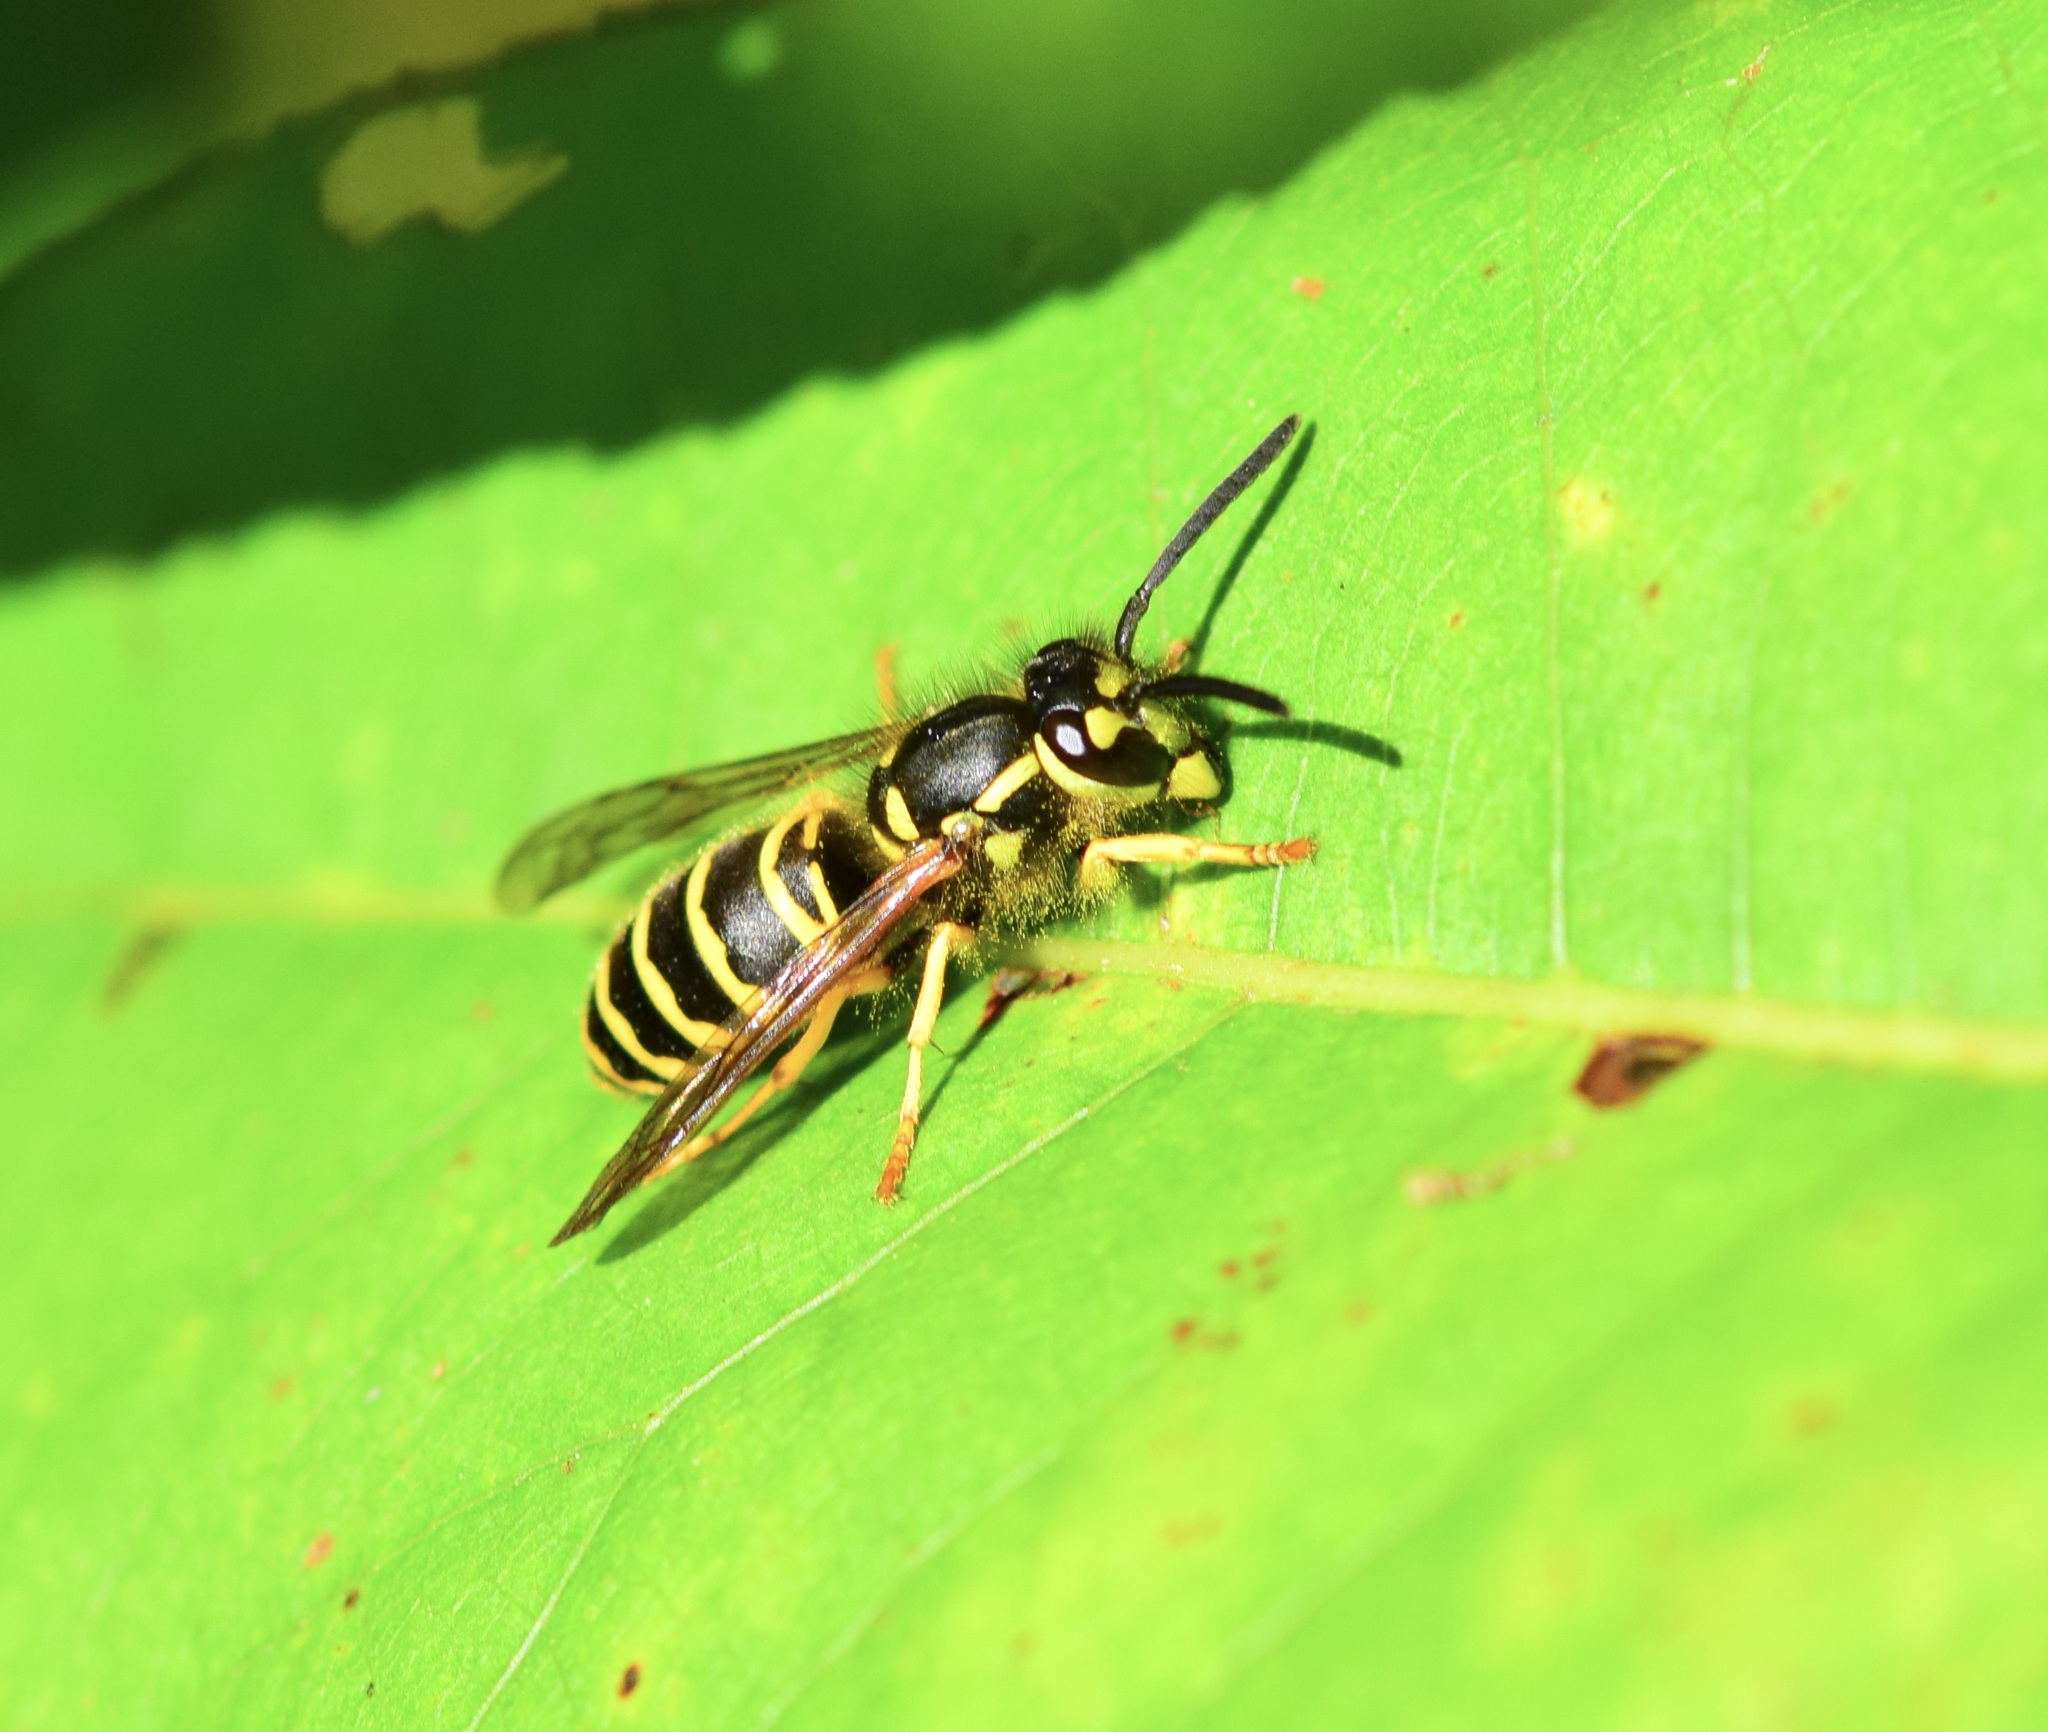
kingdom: Animalia
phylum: Arthropoda
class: Insecta
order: Hymenoptera
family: Vespidae
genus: Vespula
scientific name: Vespula maculifrons
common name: Eastern yellowjacket
